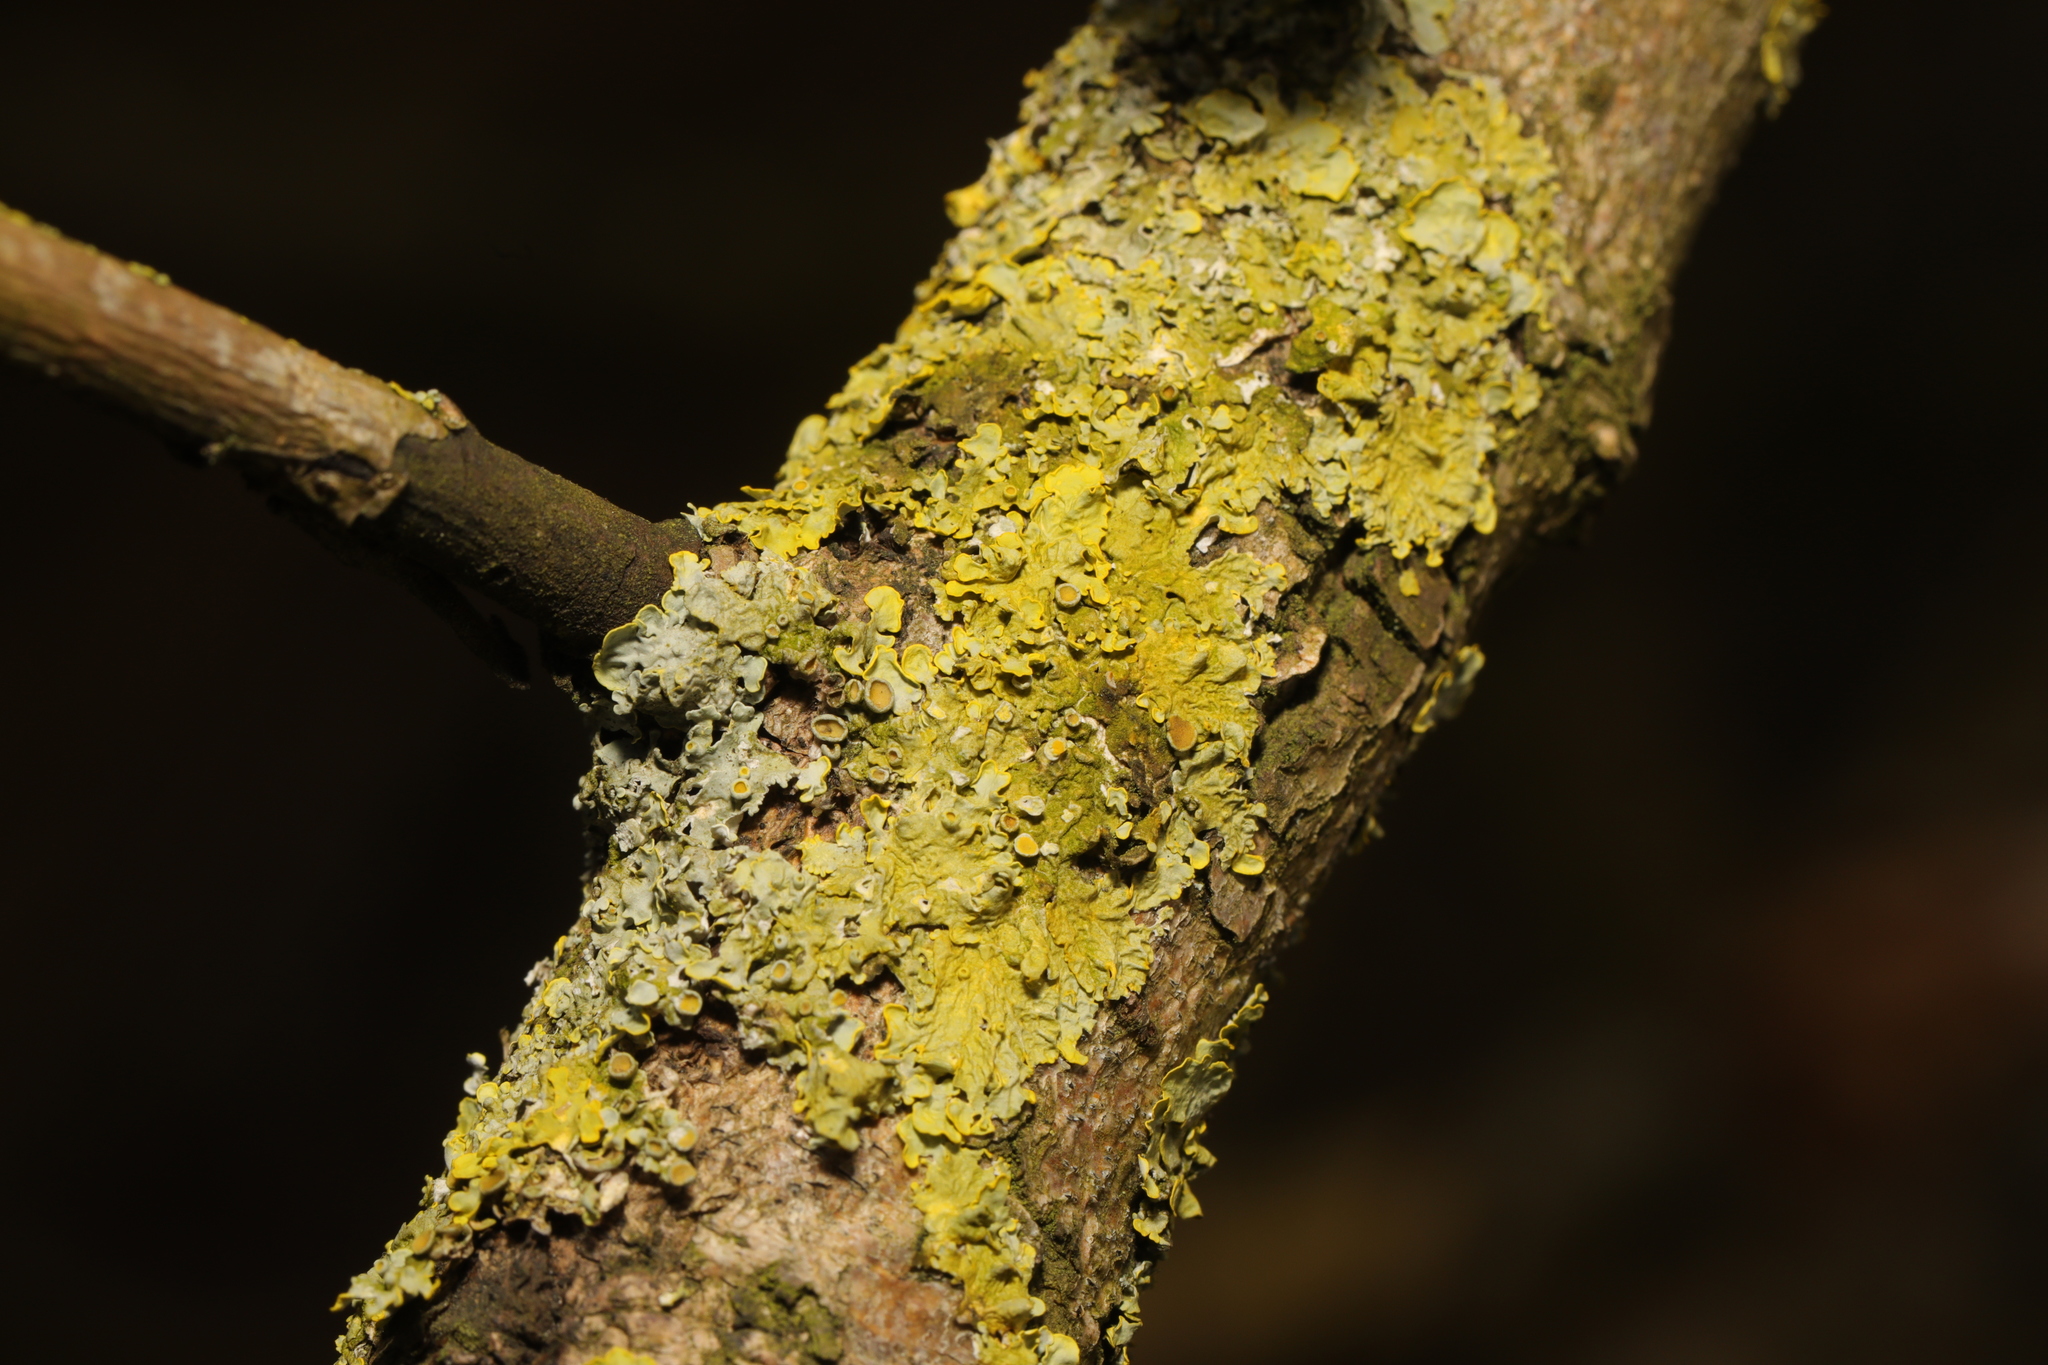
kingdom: Fungi
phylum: Ascomycota
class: Lecanoromycetes
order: Teloschistales
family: Teloschistaceae
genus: Xanthoria
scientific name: Xanthoria parietina
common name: Common orange lichen
